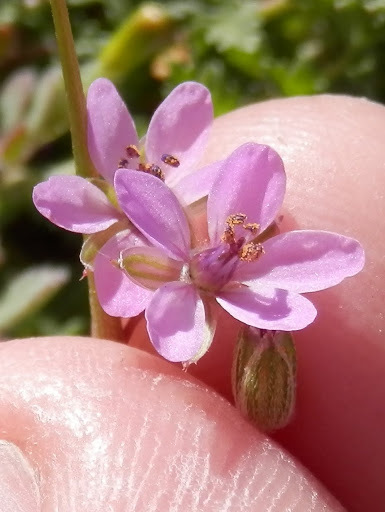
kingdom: Plantae
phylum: Tracheophyta
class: Magnoliopsida
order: Geraniales
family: Geraniaceae
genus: Erodium
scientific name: Erodium cicutarium
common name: Common stork's-bill
